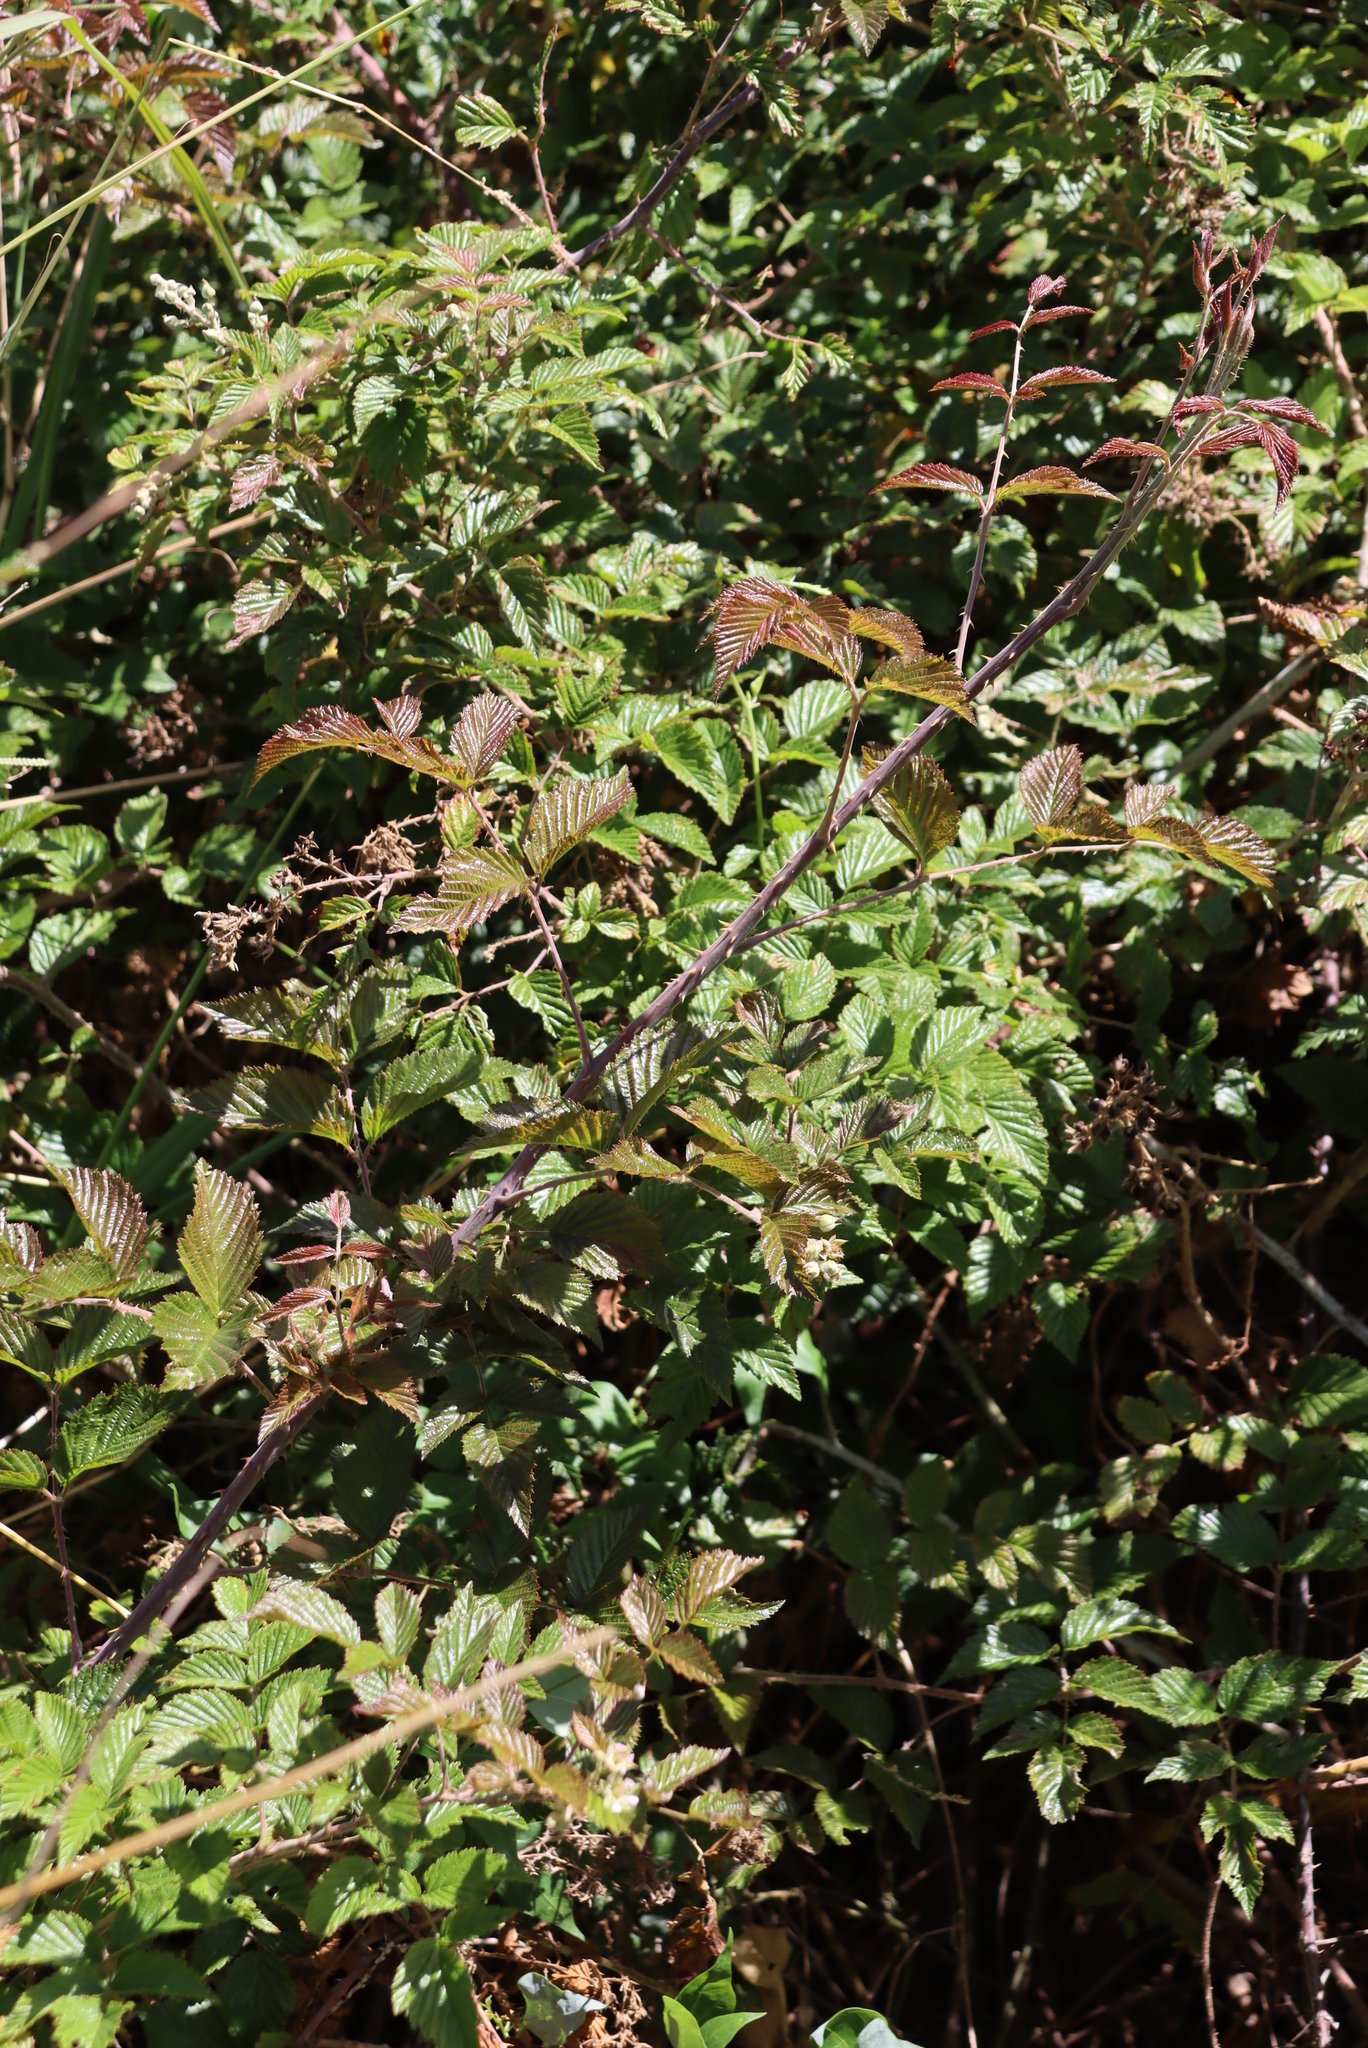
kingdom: Plantae
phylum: Tracheophyta
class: Magnoliopsida
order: Rosales
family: Rosaceae
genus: Rubus
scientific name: Rubus pinnatus
